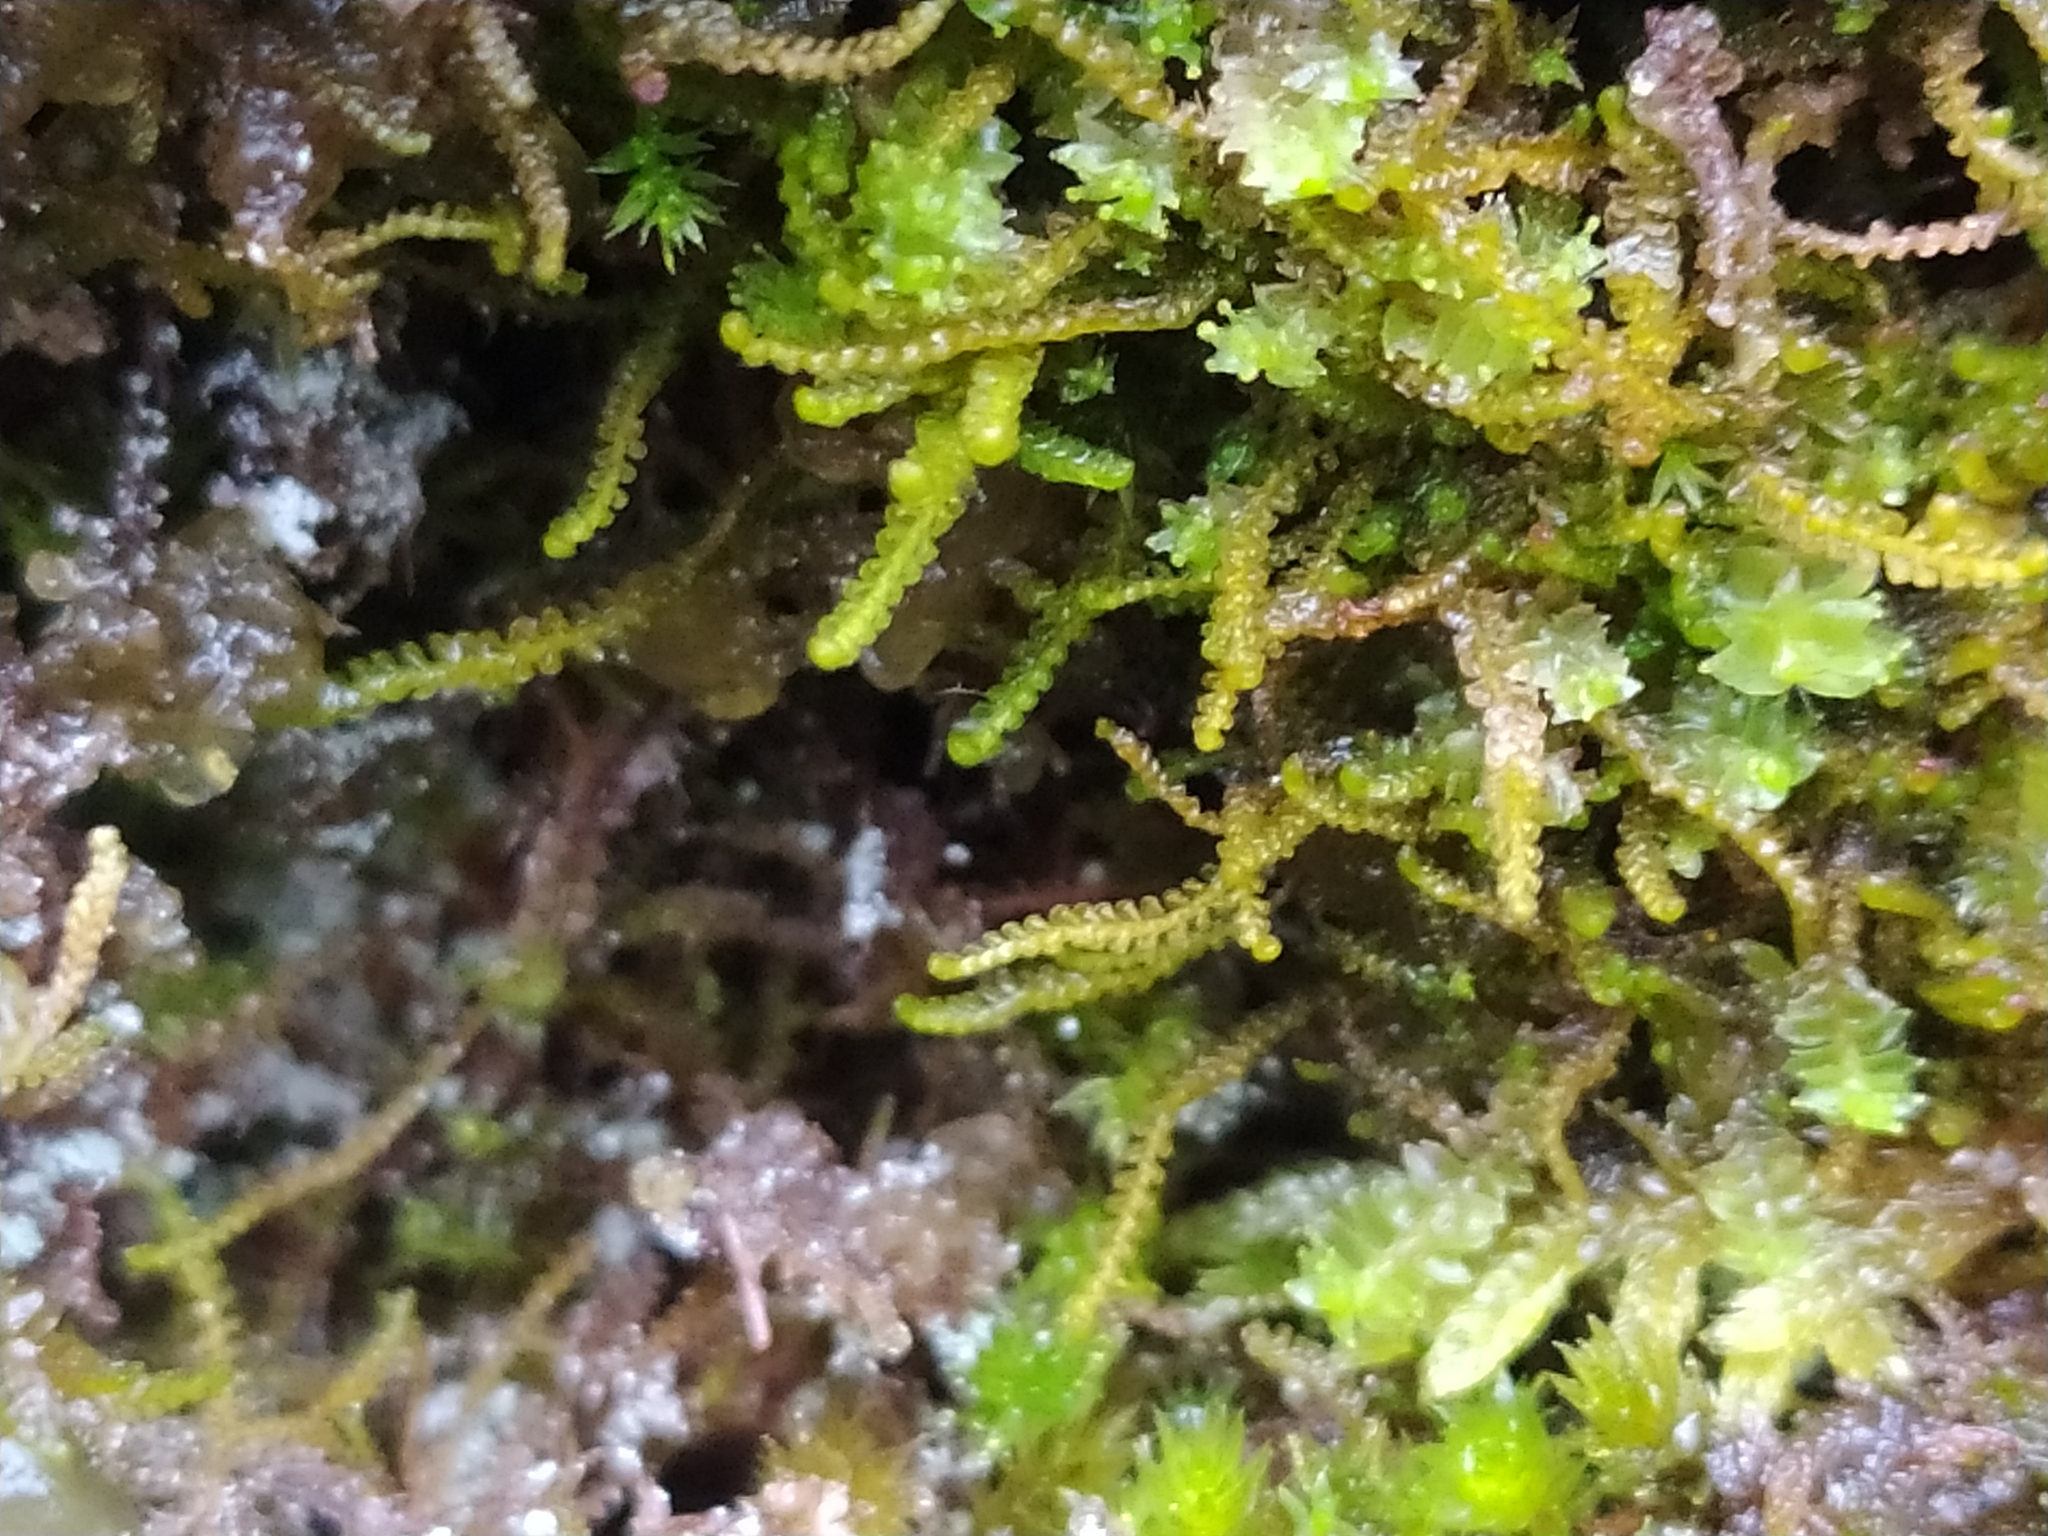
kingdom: Plantae
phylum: Marchantiophyta
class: Jungermanniopsida
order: Jungermanniales
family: Anastrophyllaceae
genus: Sphenolobus
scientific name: Sphenolobus minutus
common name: Comb notchwort
